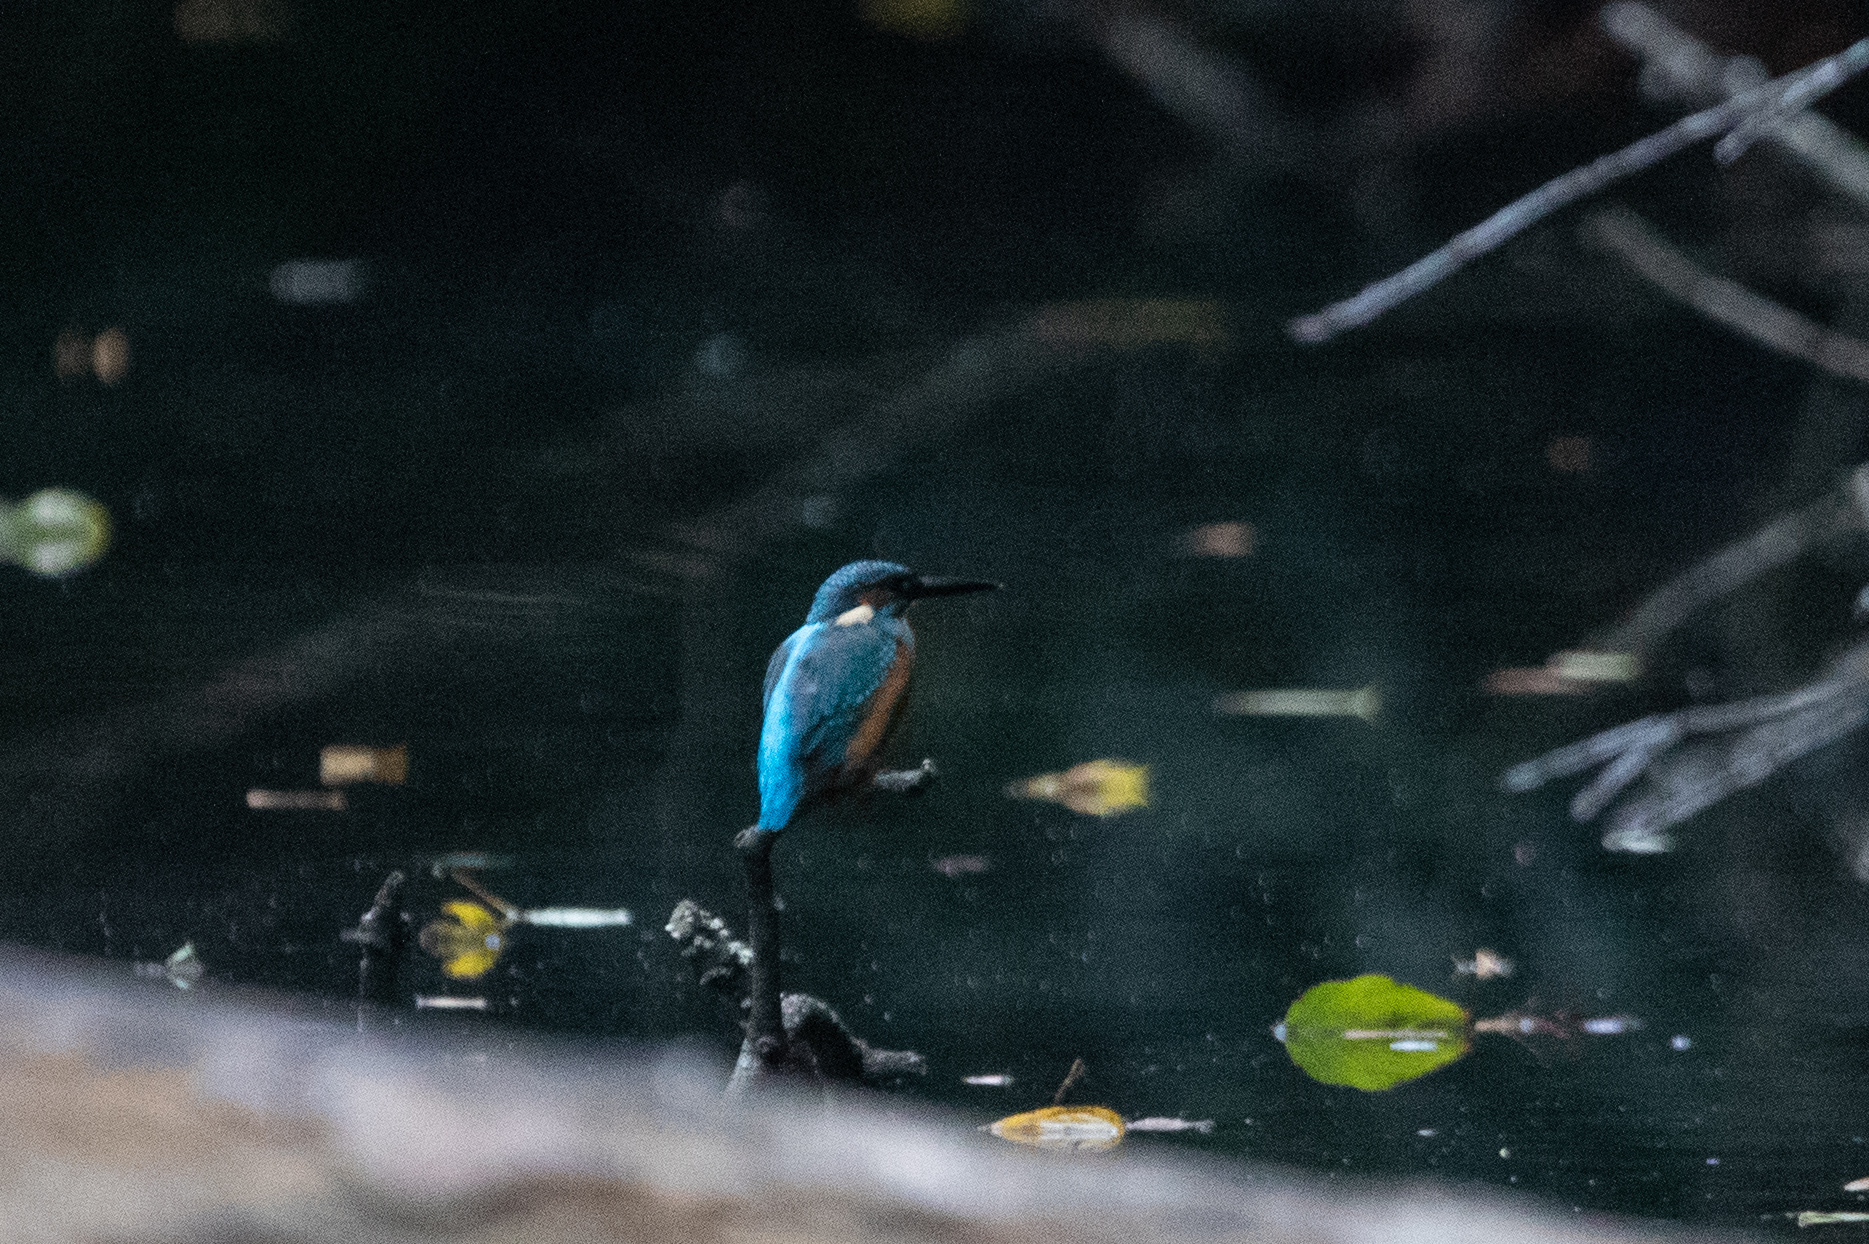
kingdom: Animalia
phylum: Chordata
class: Aves
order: Coraciiformes
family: Alcedinidae
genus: Alcedo
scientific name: Alcedo atthis
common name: Common kingfisher
